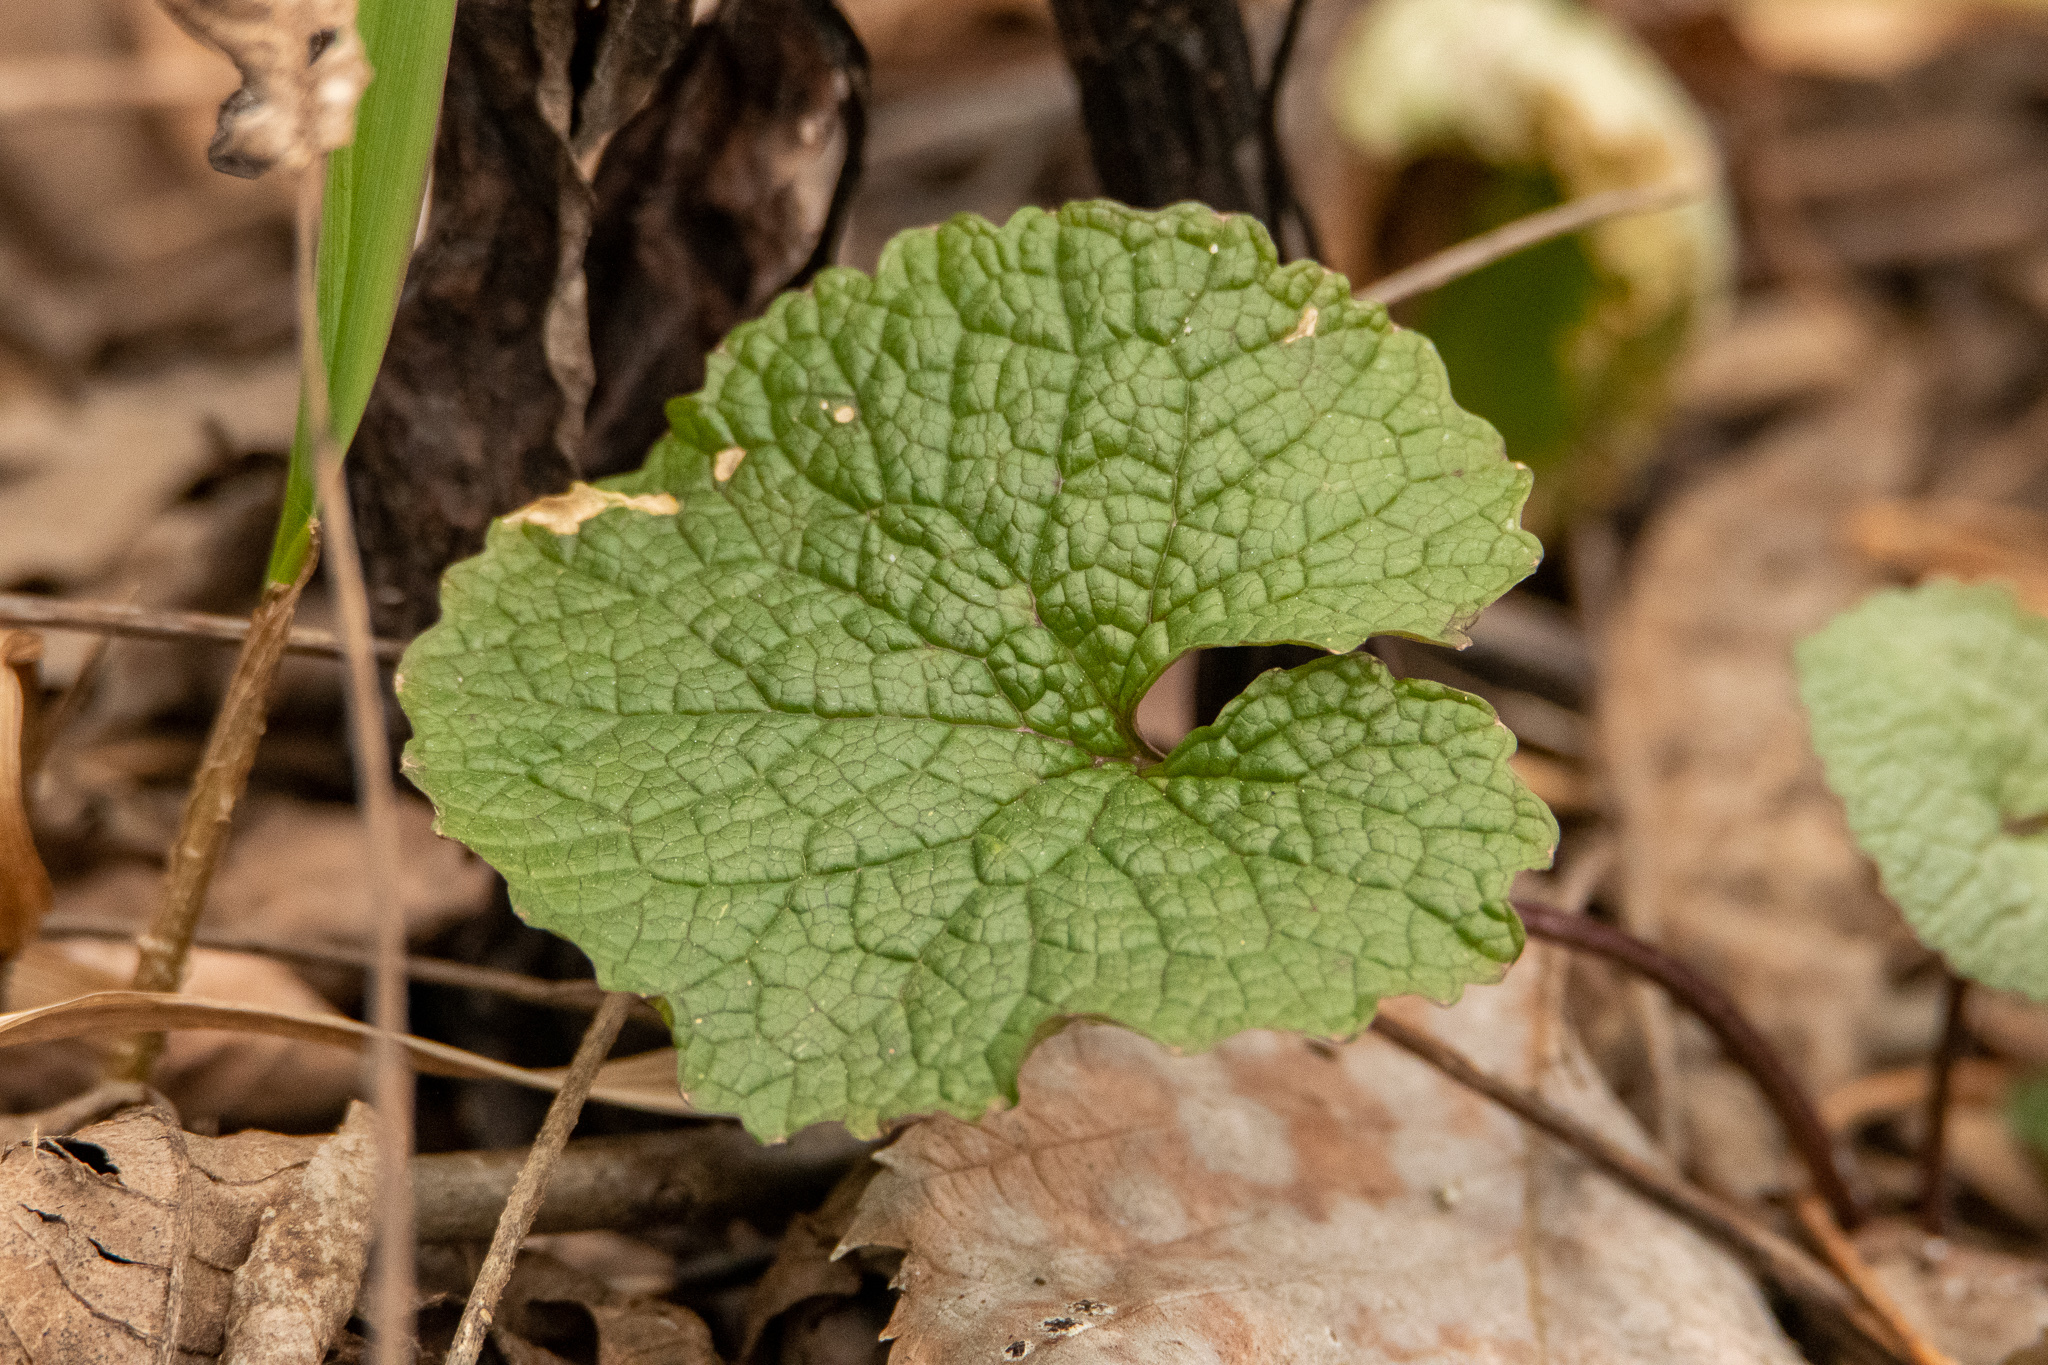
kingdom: Plantae
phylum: Tracheophyta
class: Magnoliopsida
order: Brassicales
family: Brassicaceae
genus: Alliaria
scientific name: Alliaria petiolata
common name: Garlic mustard
